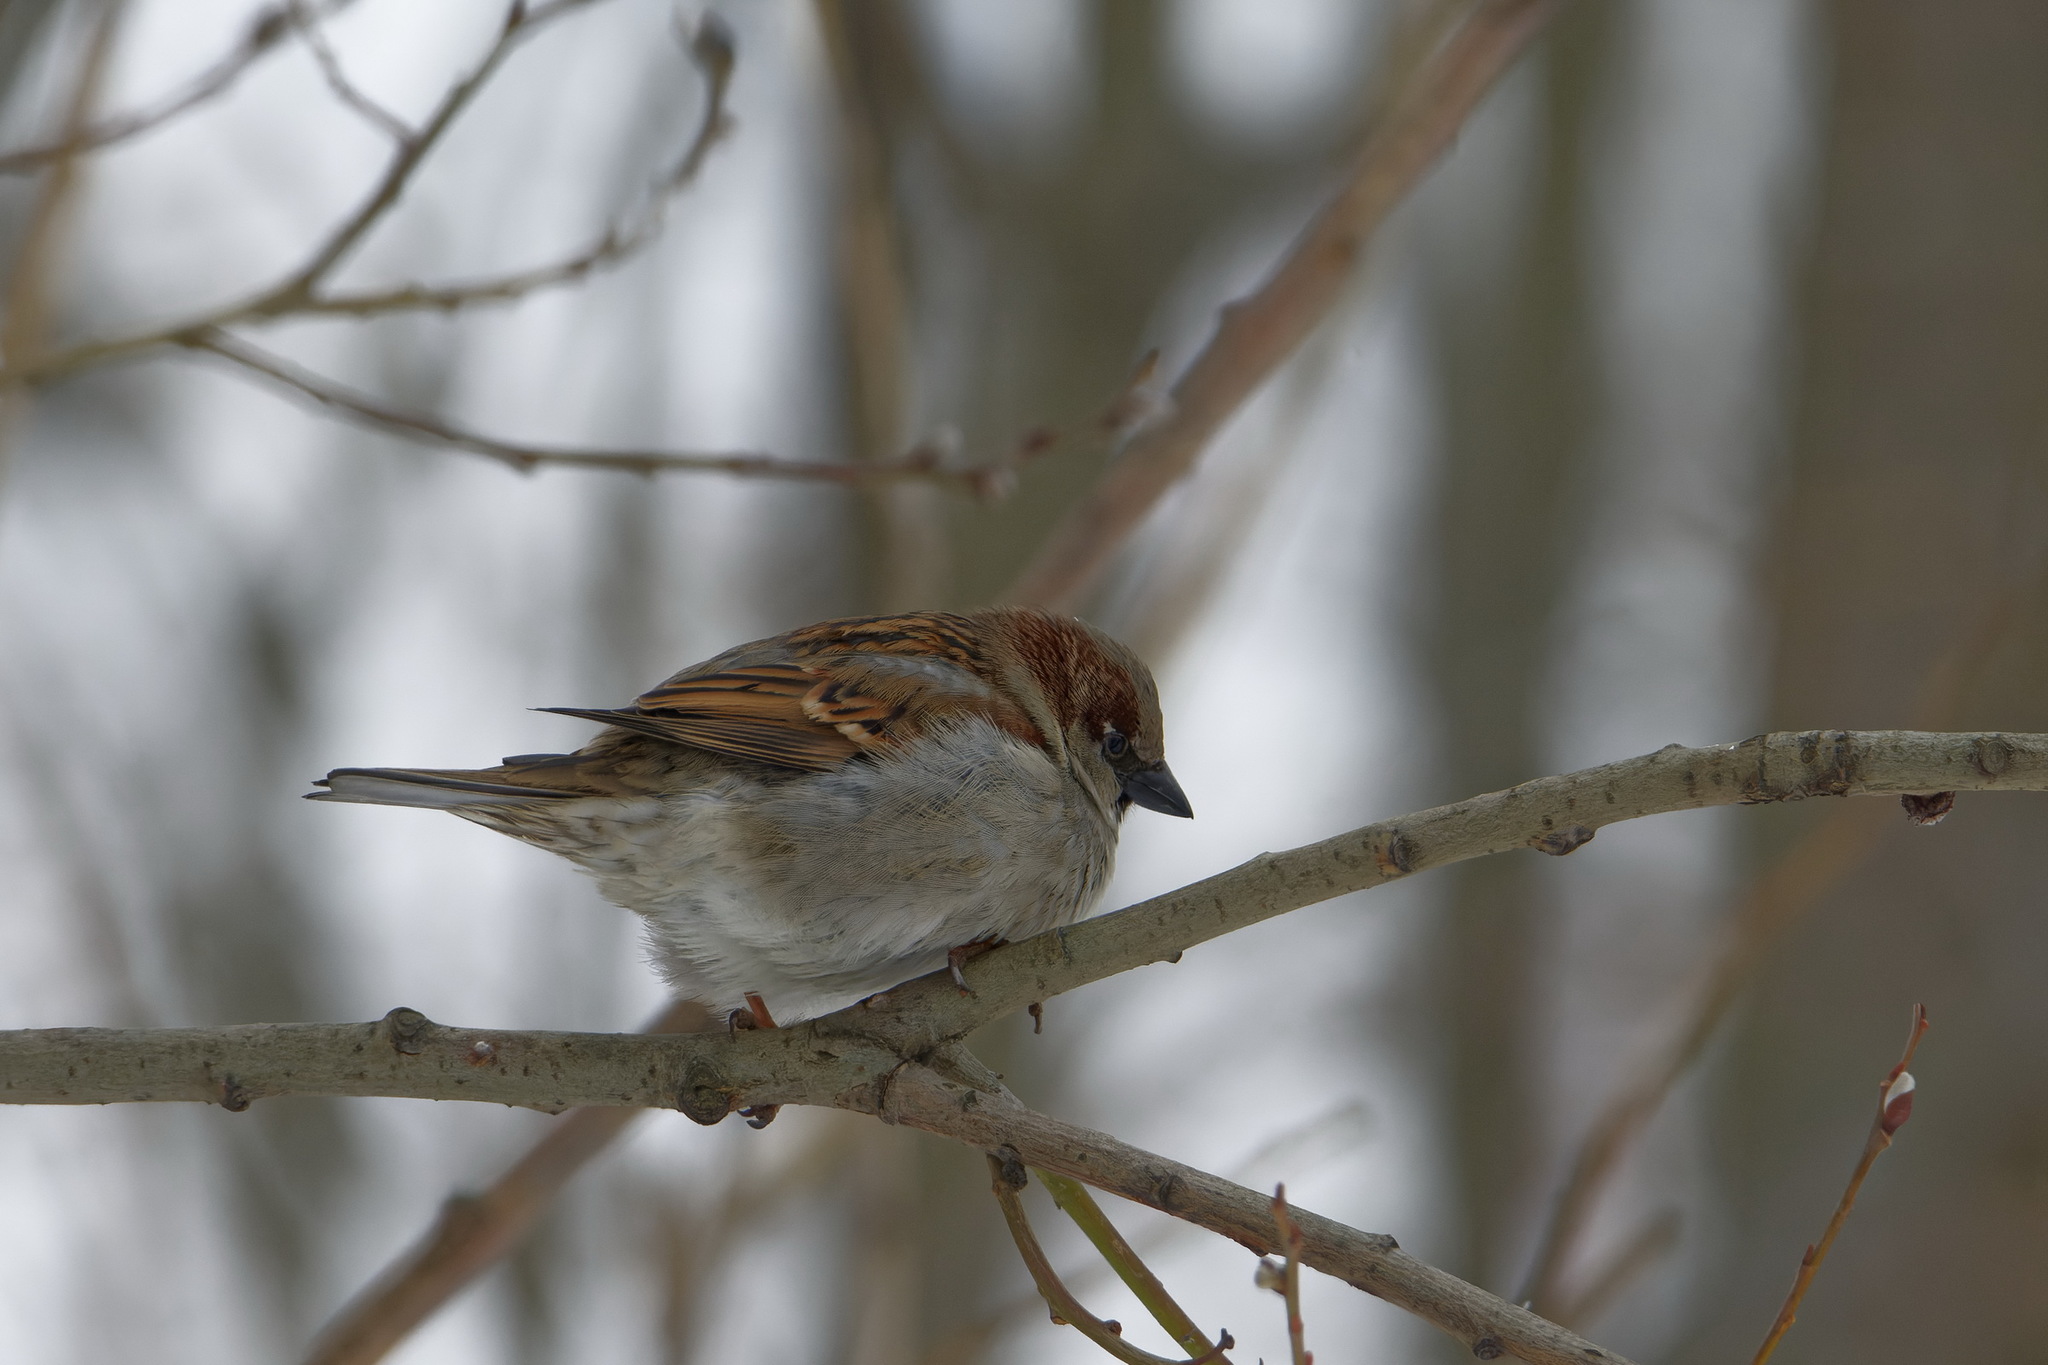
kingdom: Animalia
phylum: Chordata
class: Aves
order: Passeriformes
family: Passeridae
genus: Passer
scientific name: Passer domesticus
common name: House sparrow
